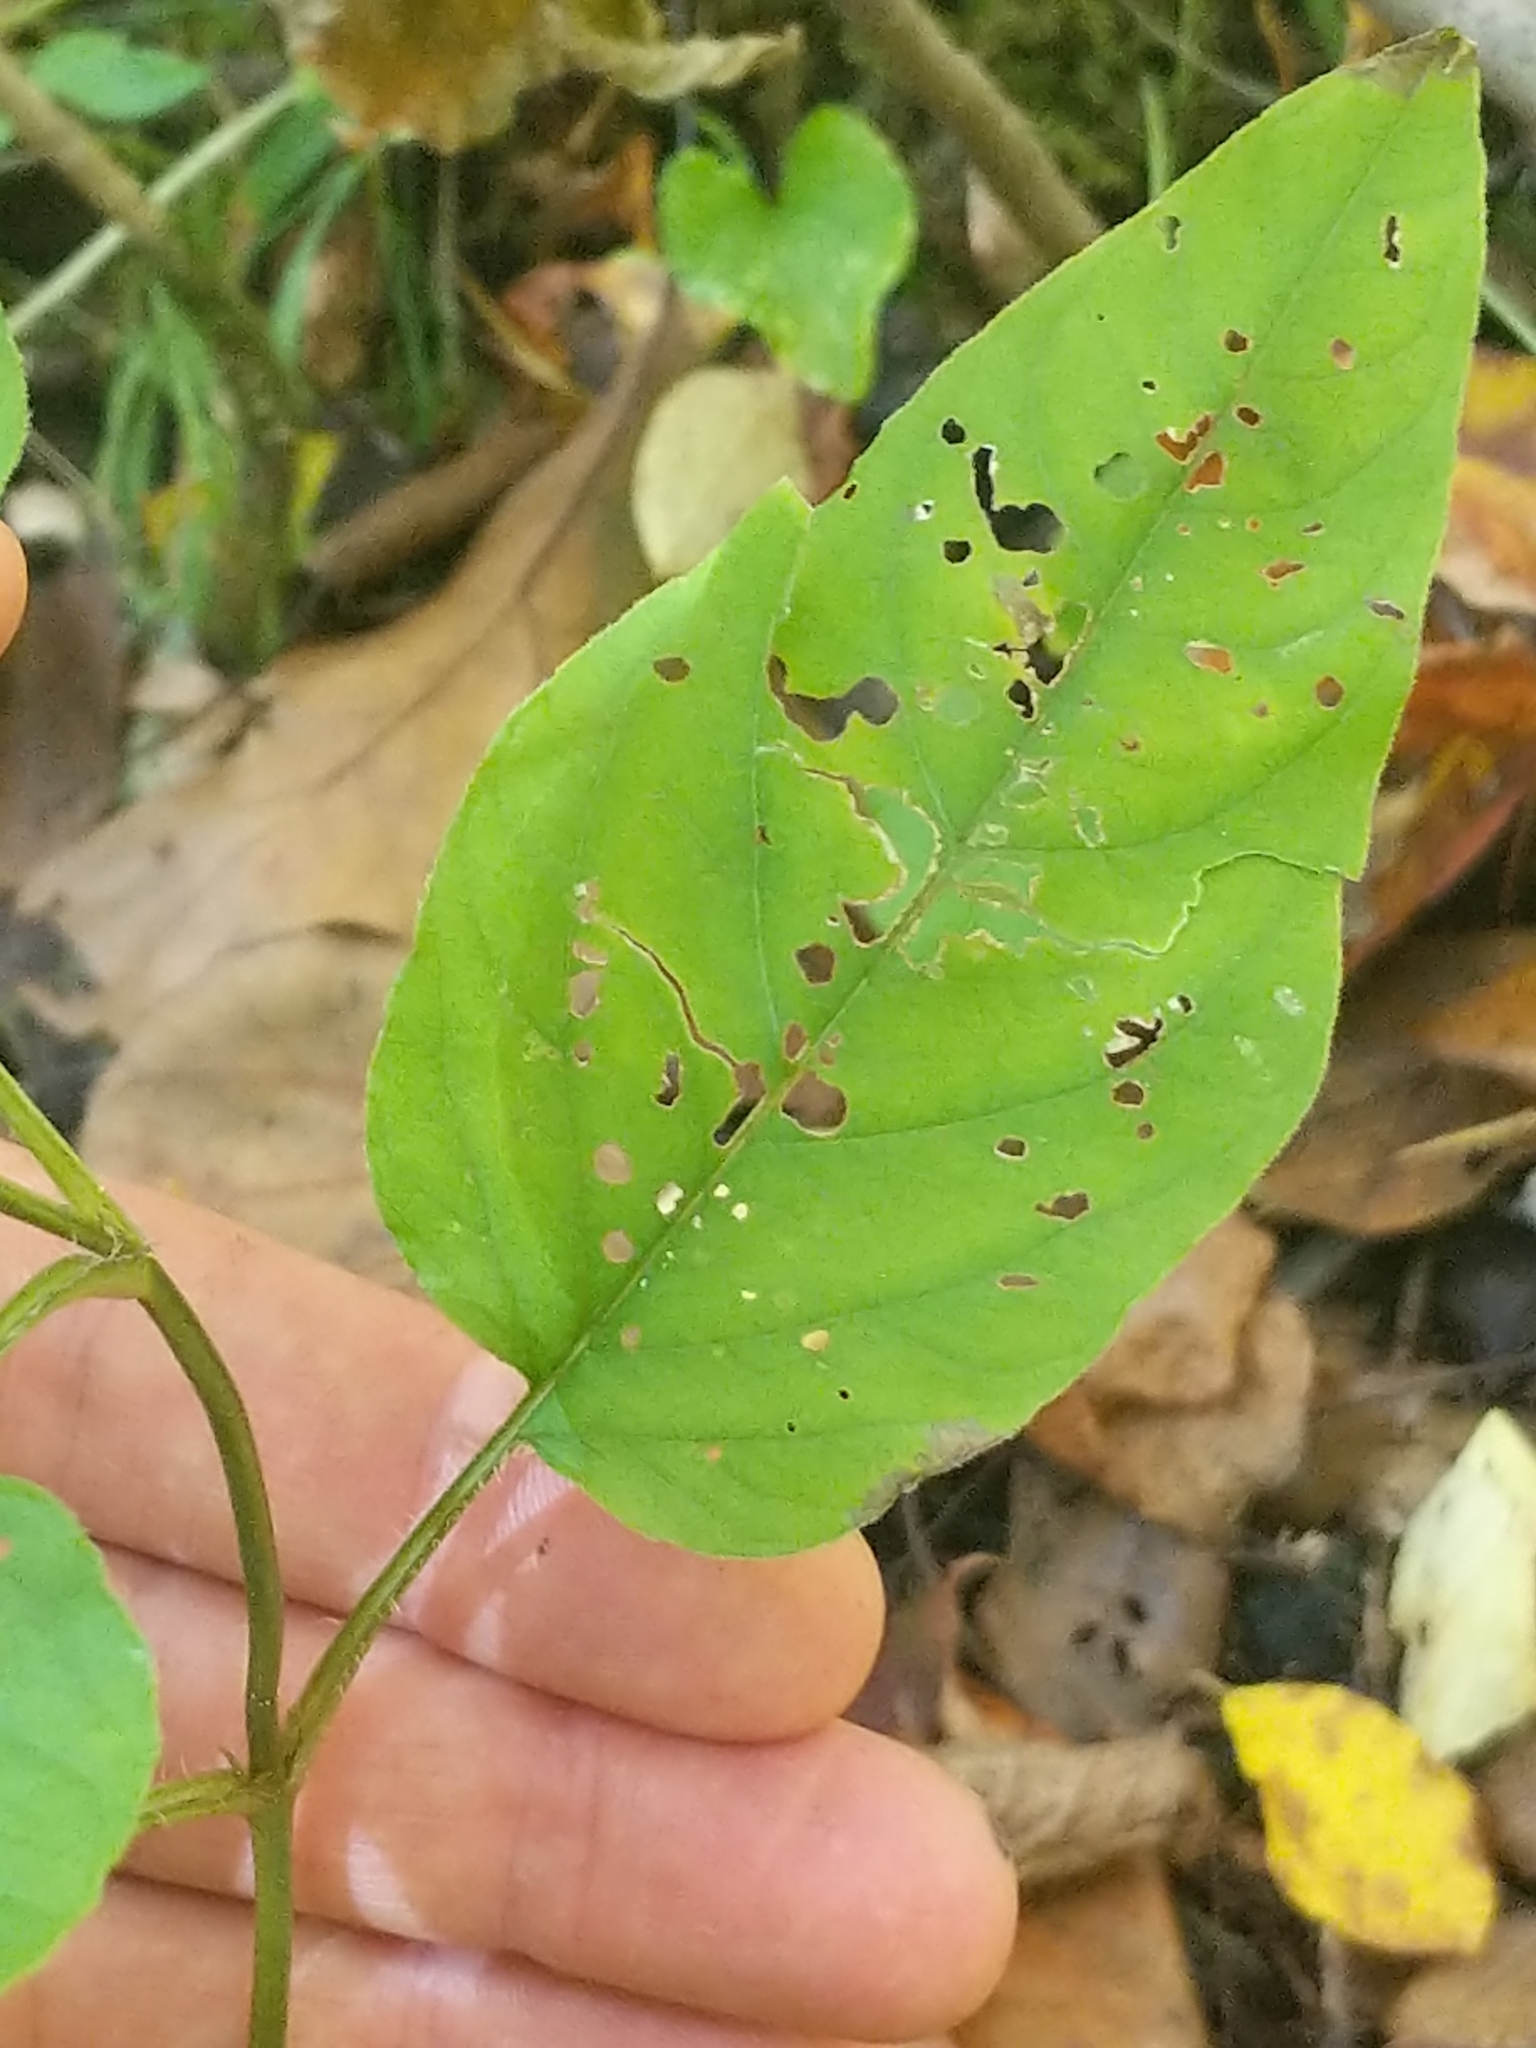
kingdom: Plantae
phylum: Tracheophyta
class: Magnoliopsida
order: Ericales
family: Primulaceae
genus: Lysimachia
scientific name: Lysimachia ciliata
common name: Fringed loosestrife
